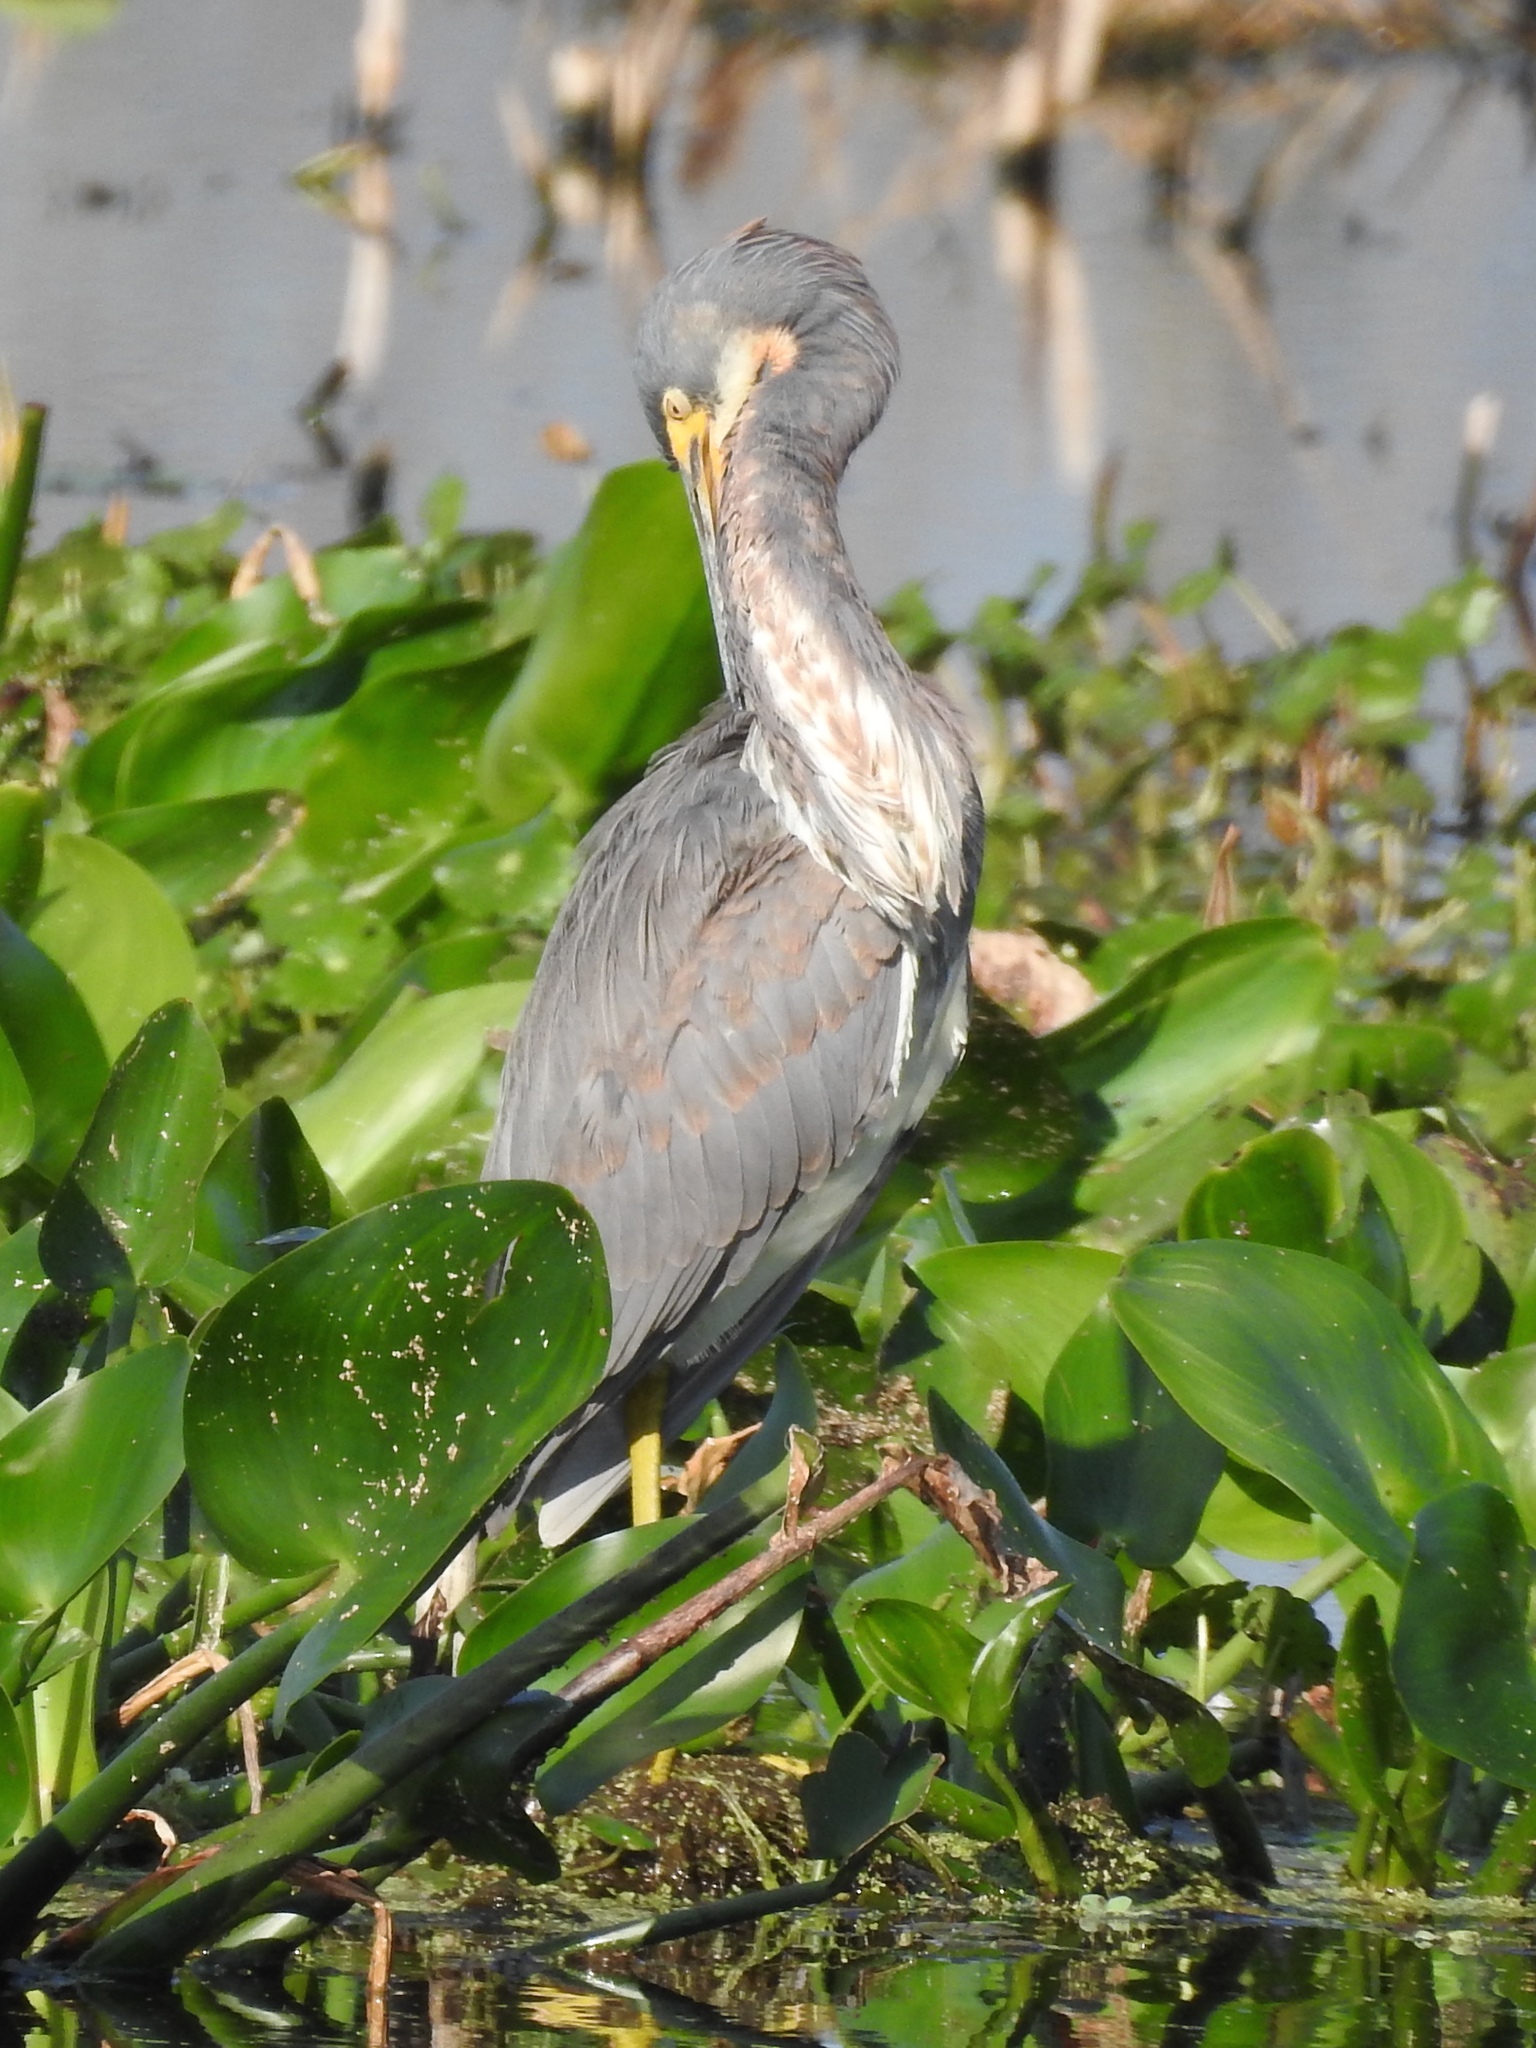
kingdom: Animalia
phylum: Chordata
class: Aves
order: Pelecaniformes
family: Ardeidae
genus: Egretta
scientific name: Egretta tricolor
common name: Tricolored heron
